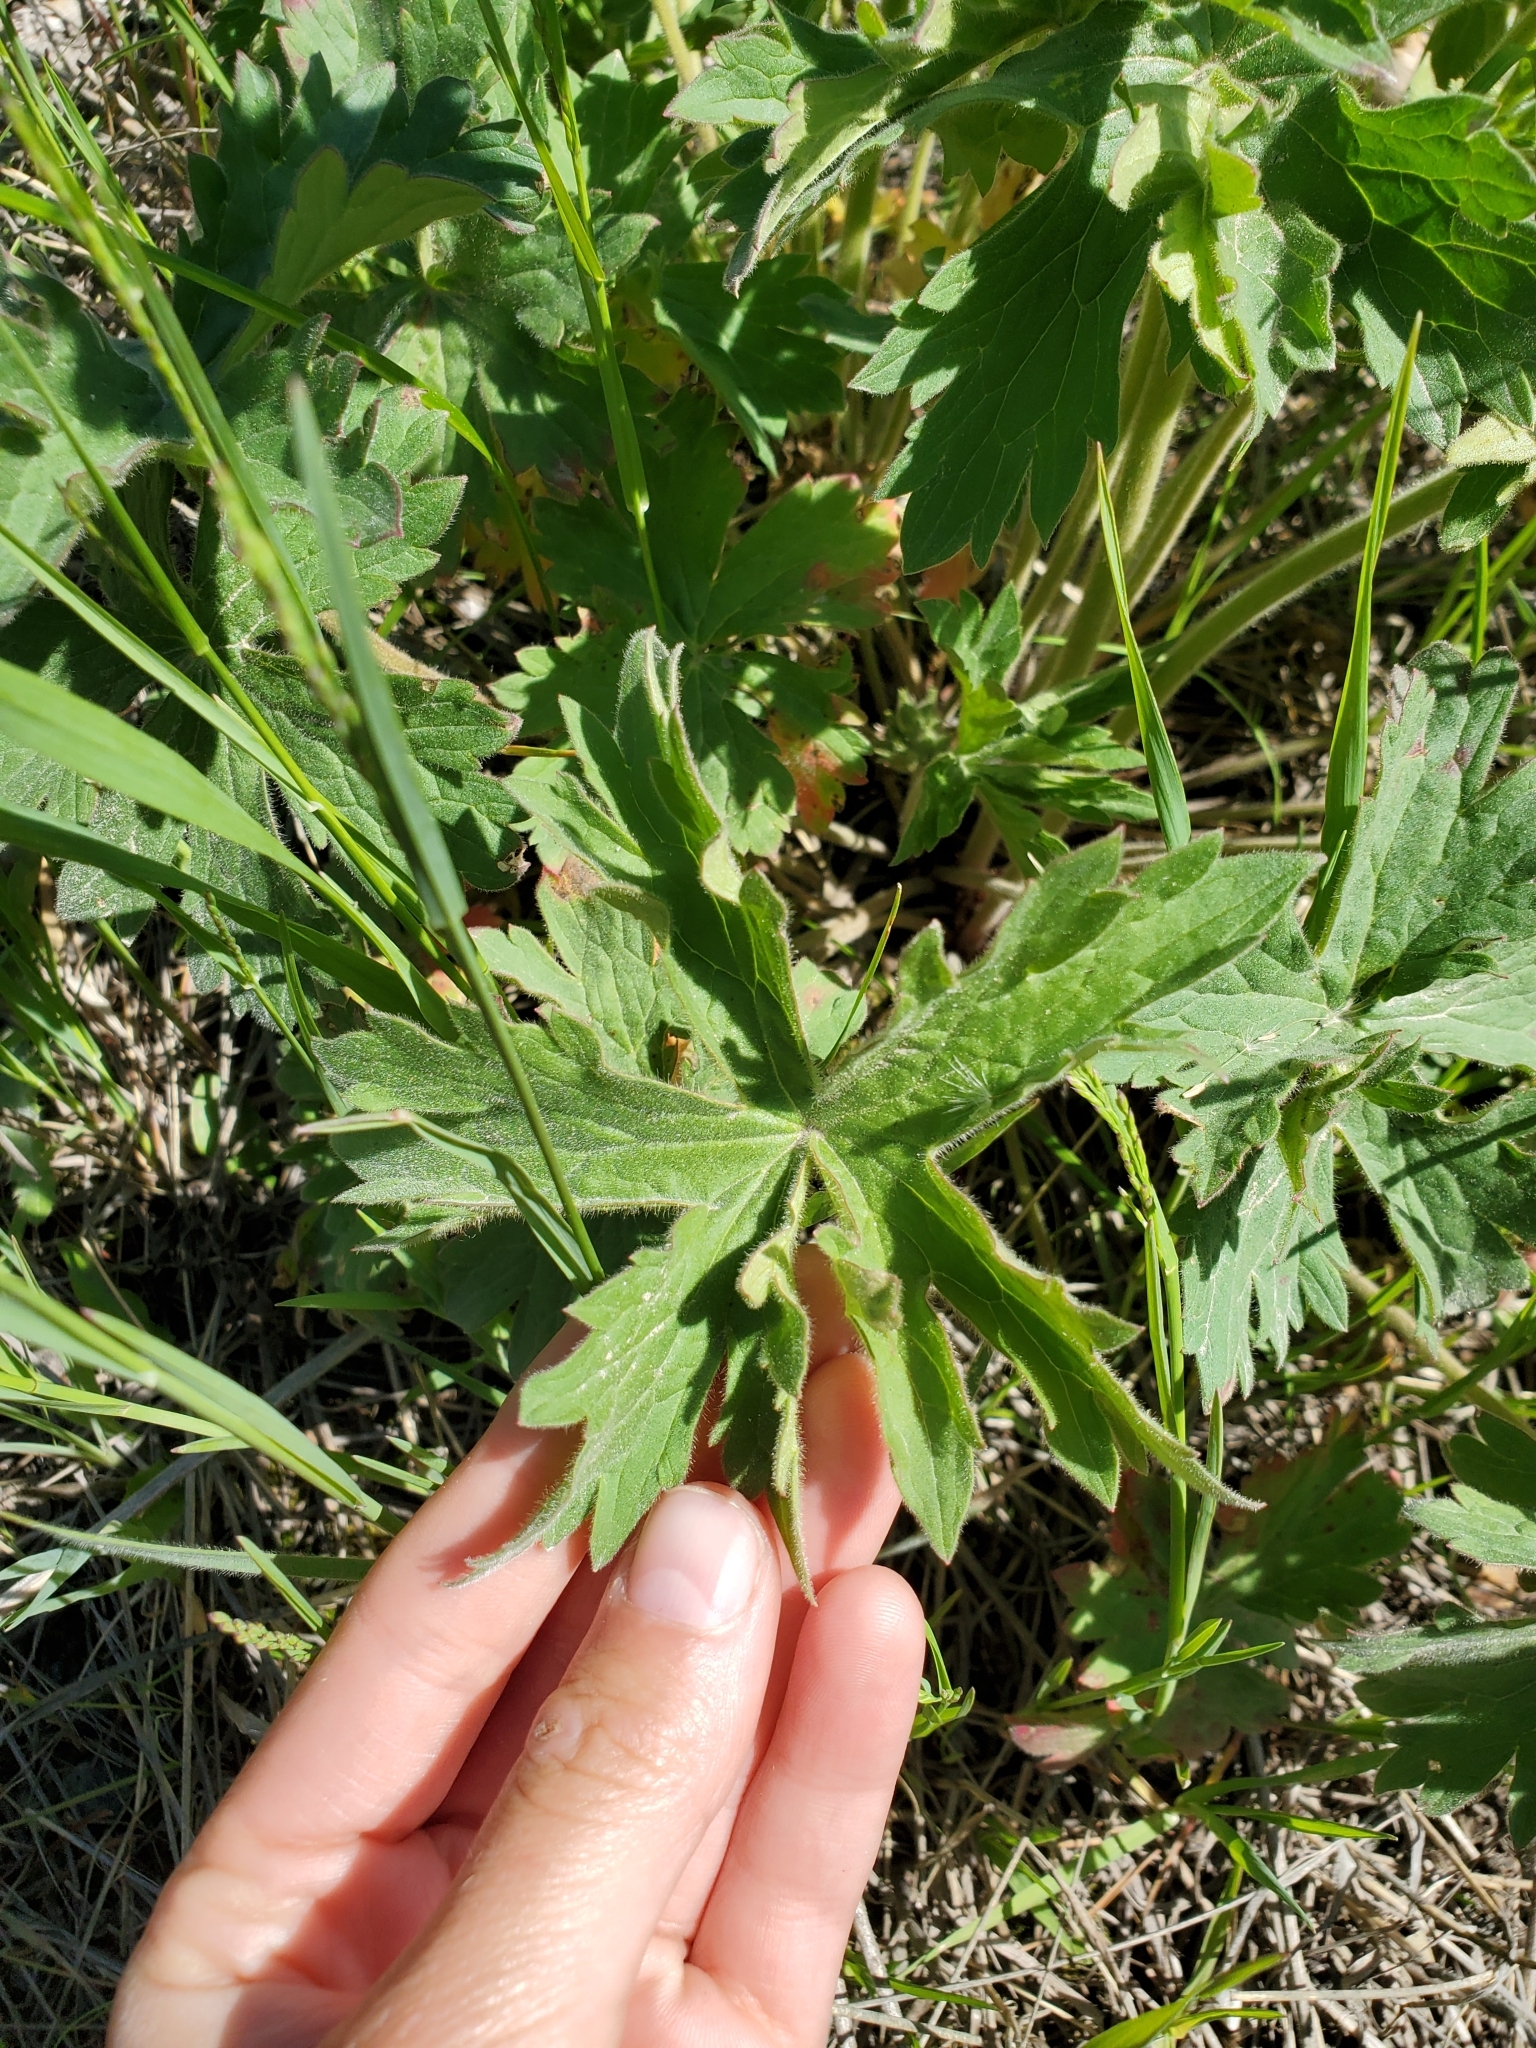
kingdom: Plantae
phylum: Tracheophyta
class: Magnoliopsida
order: Geraniales
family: Geraniaceae
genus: Geranium
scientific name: Geranium viscosissimum
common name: Purple geranium
